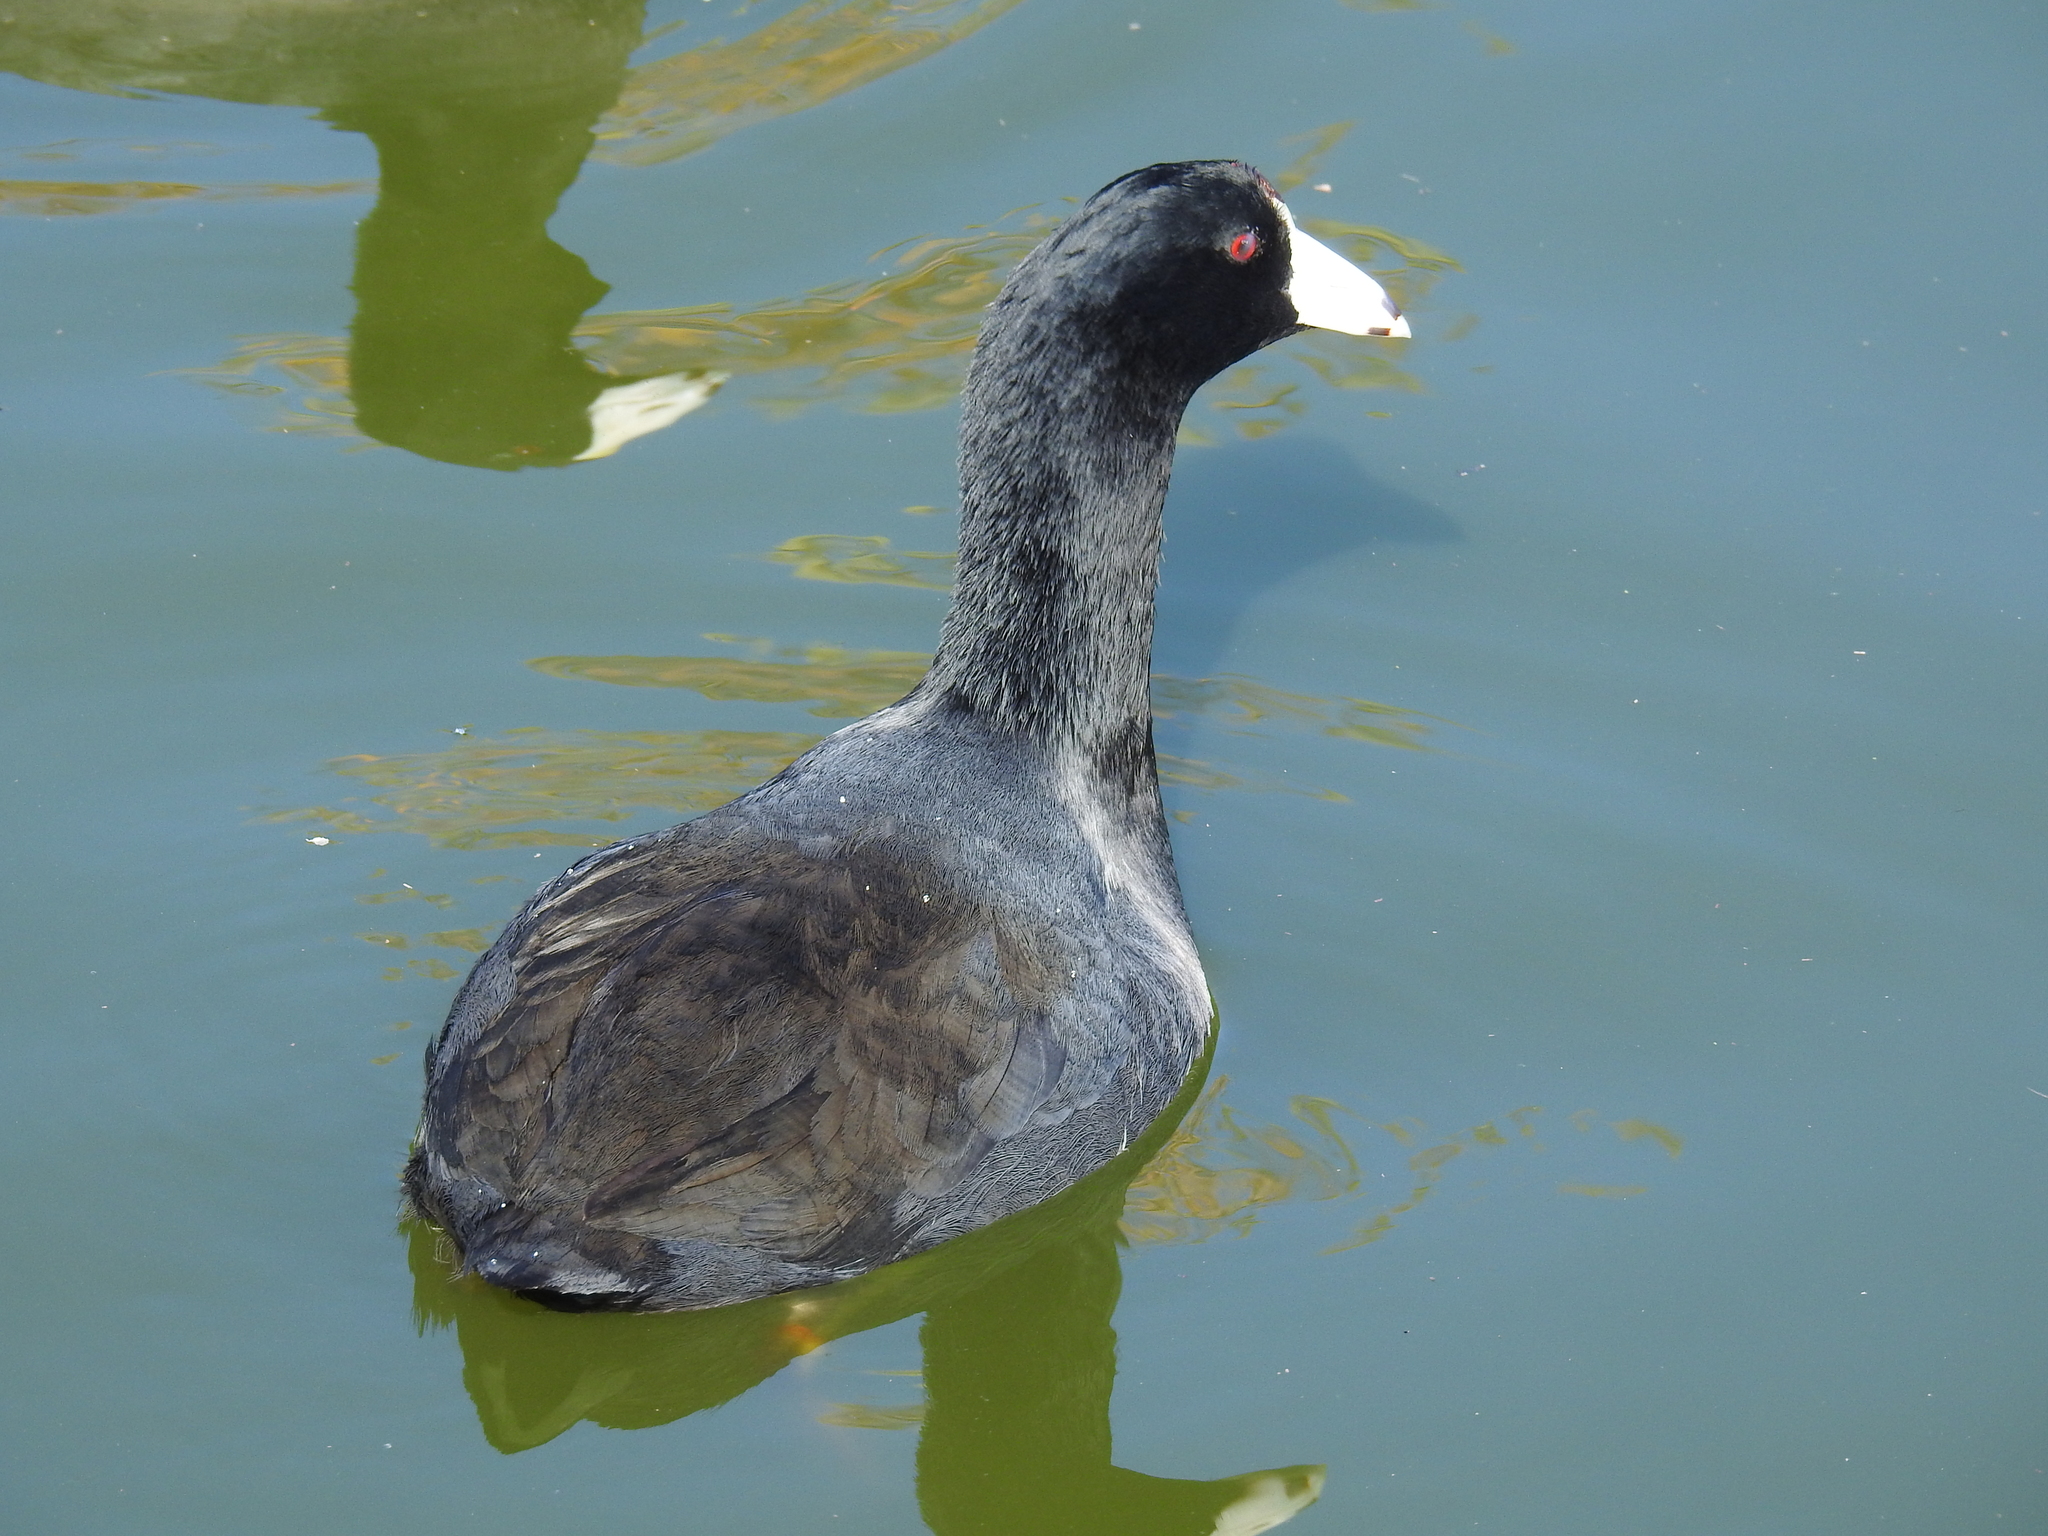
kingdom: Animalia
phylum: Chordata
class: Aves
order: Gruiformes
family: Rallidae
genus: Fulica
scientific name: Fulica americana
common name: American coot
